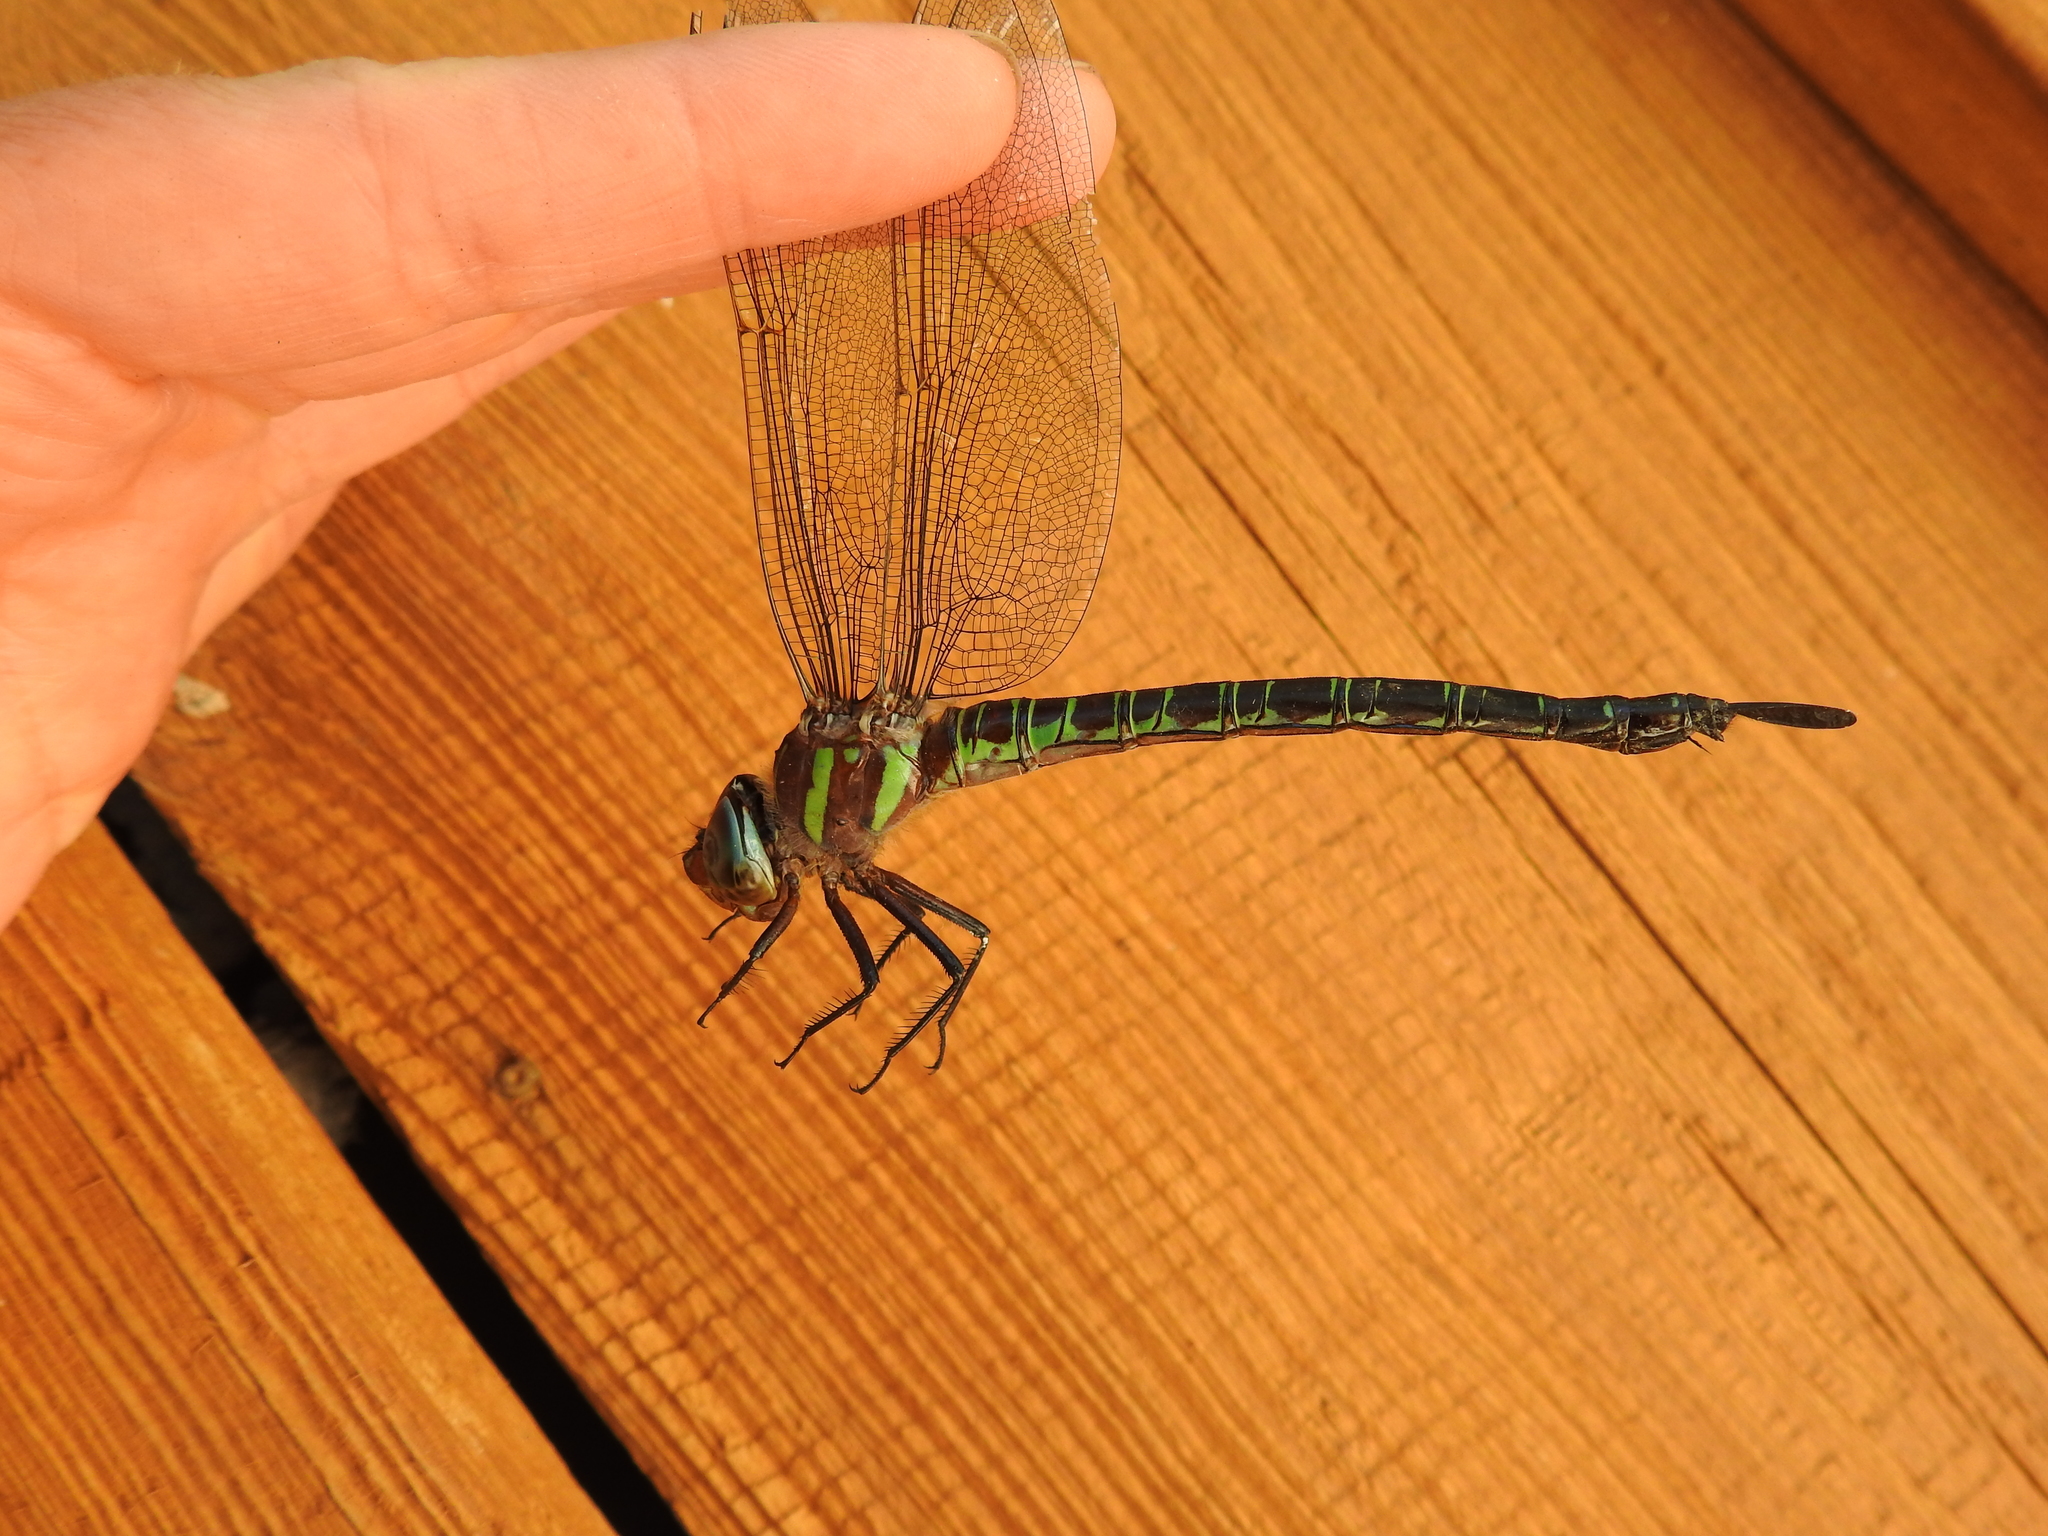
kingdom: Animalia
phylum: Arthropoda
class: Insecta
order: Odonata
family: Aeshnidae
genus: Epiaeschna
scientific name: Epiaeschna heros
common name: Swamp darner
